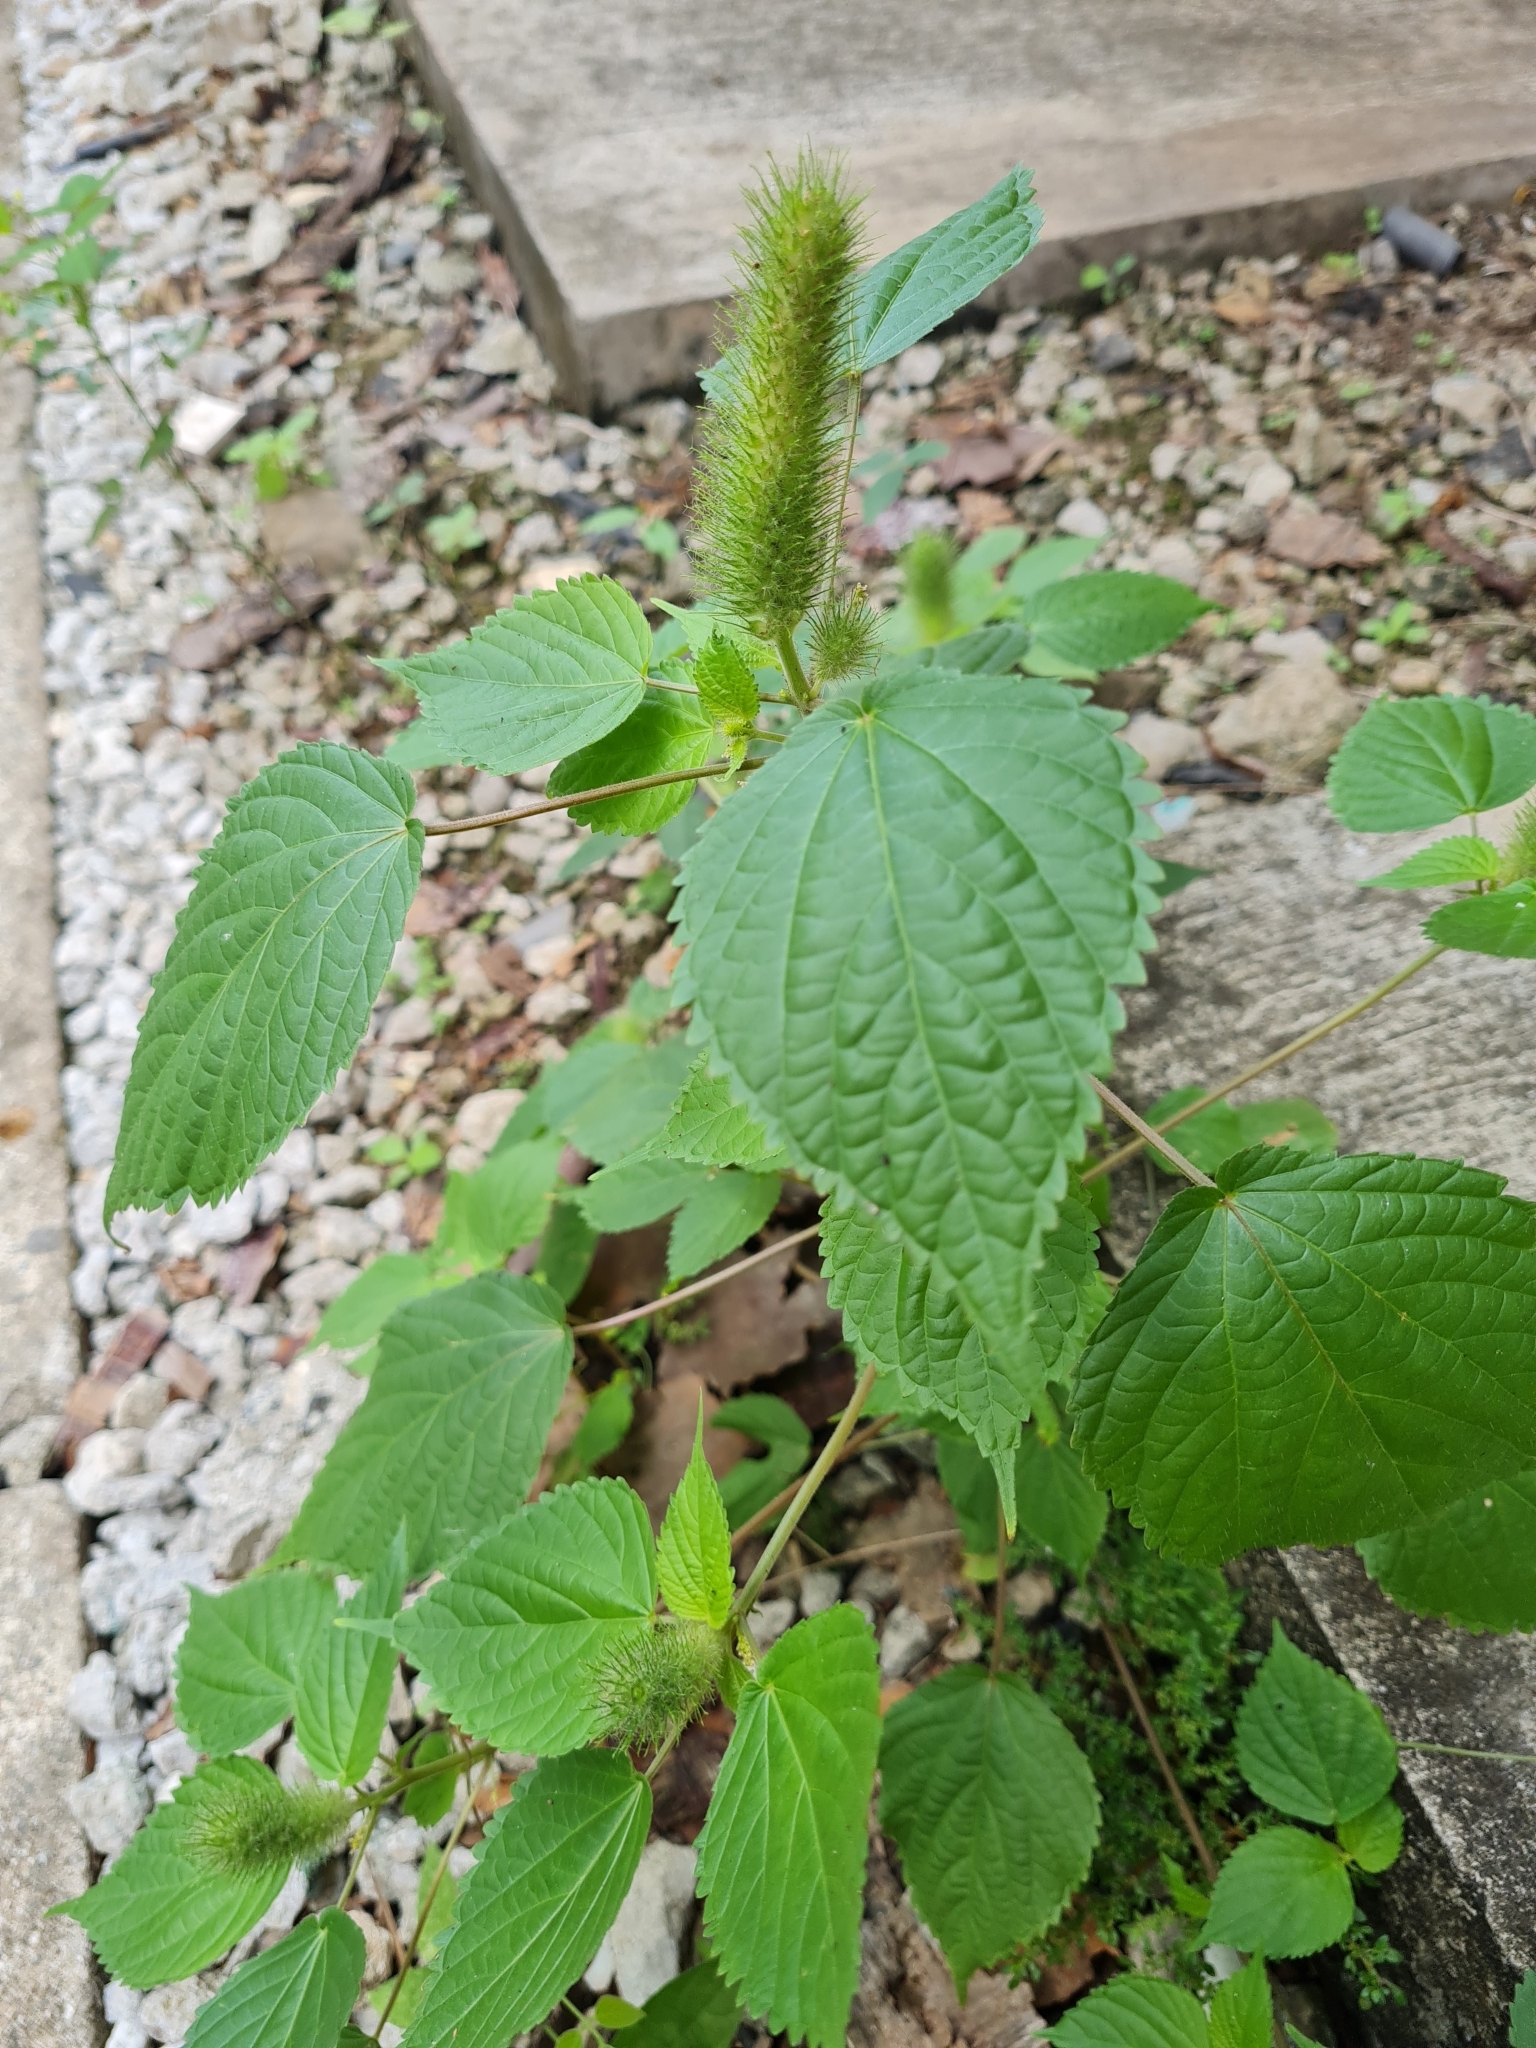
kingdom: Plantae
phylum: Tracheophyta
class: Magnoliopsida
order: Malpighiales
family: Euphorbiaceae
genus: Acalypha
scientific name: Acalypha alopecuroidea
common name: Foxtail copperleaf
